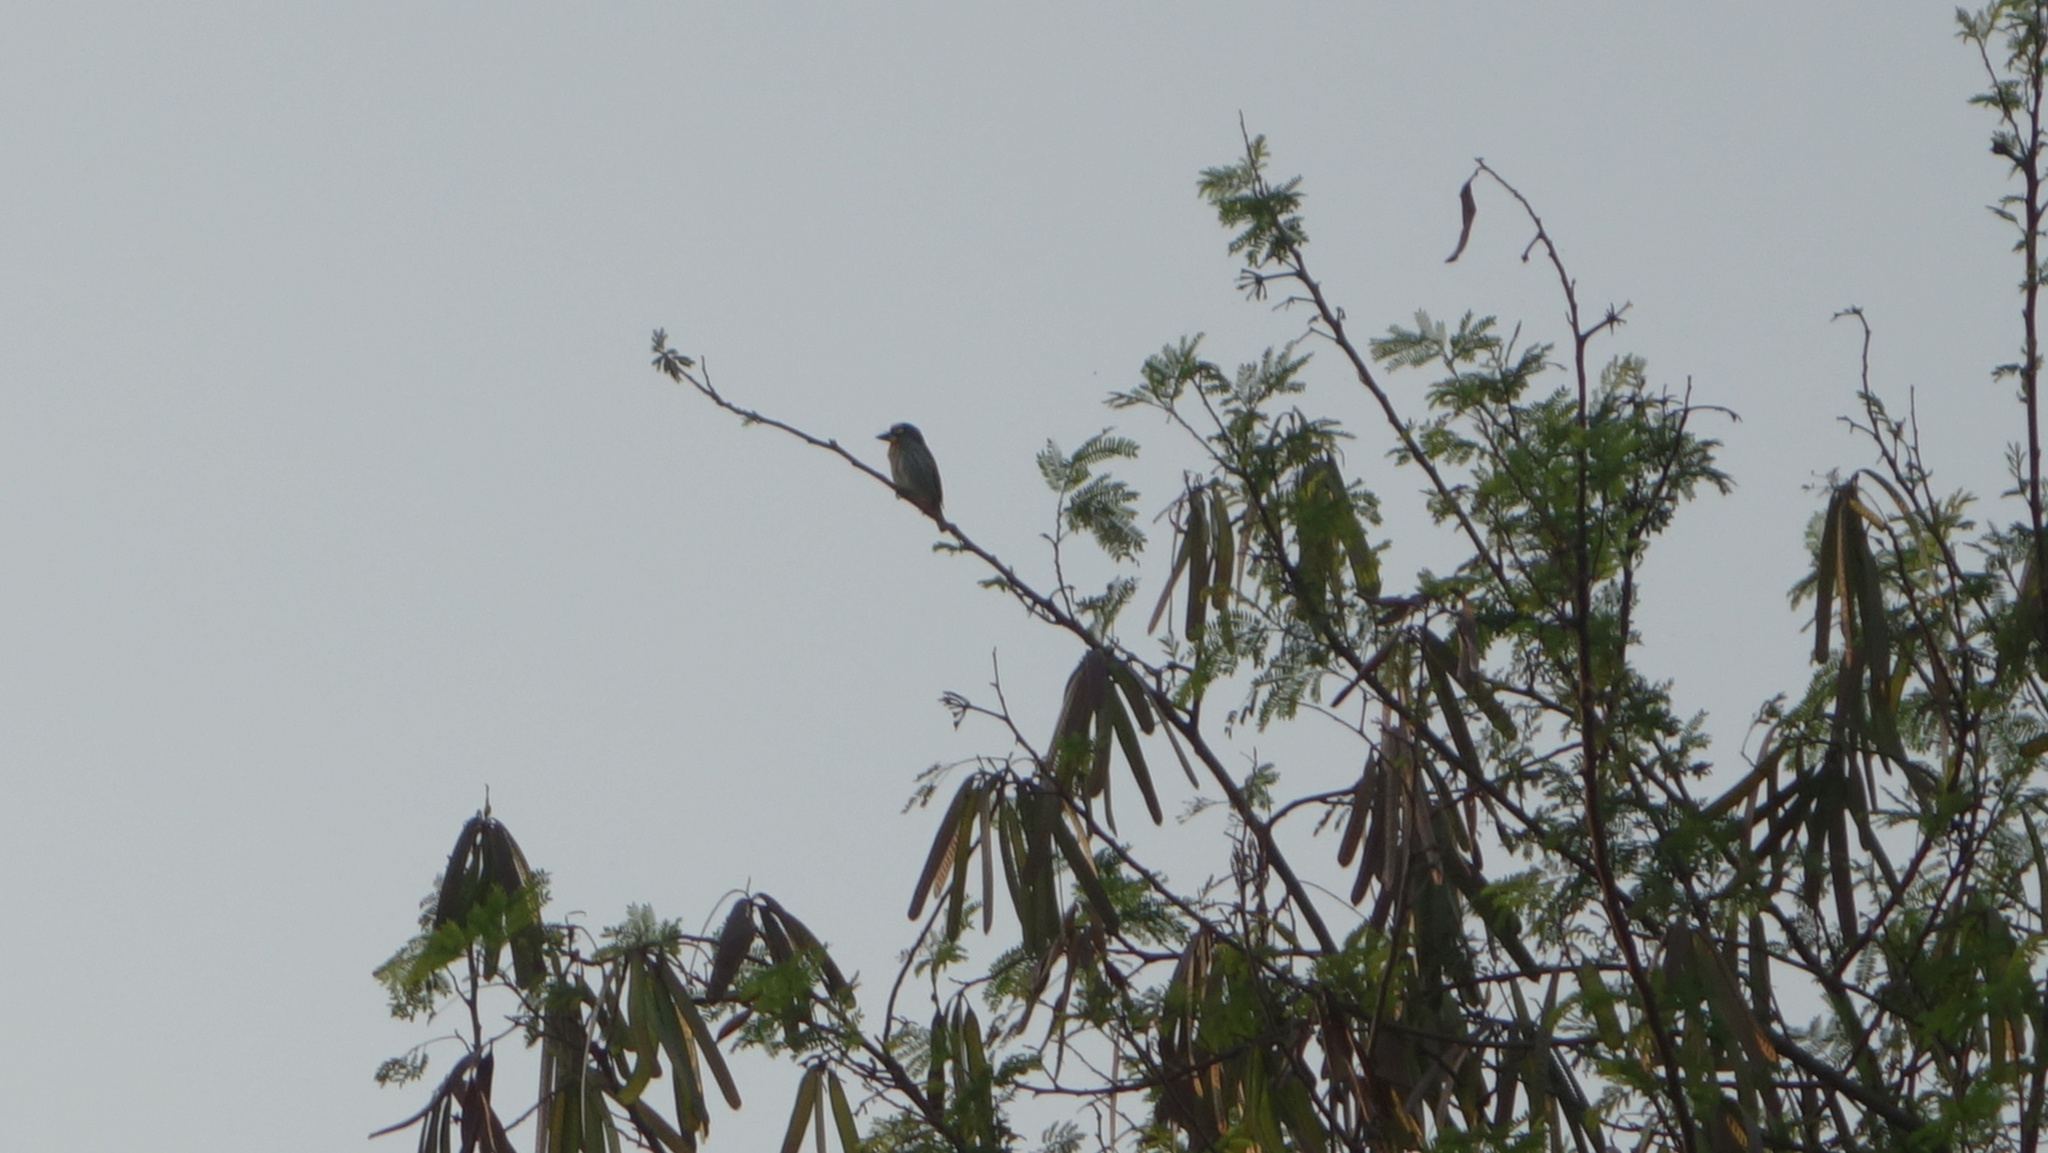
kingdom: Animalia
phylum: Chordata
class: Aves
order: Piciformes
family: Megalaimidae
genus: Psilopogon
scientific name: Psilopogon haemacephalus
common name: Coppersmith barbet
